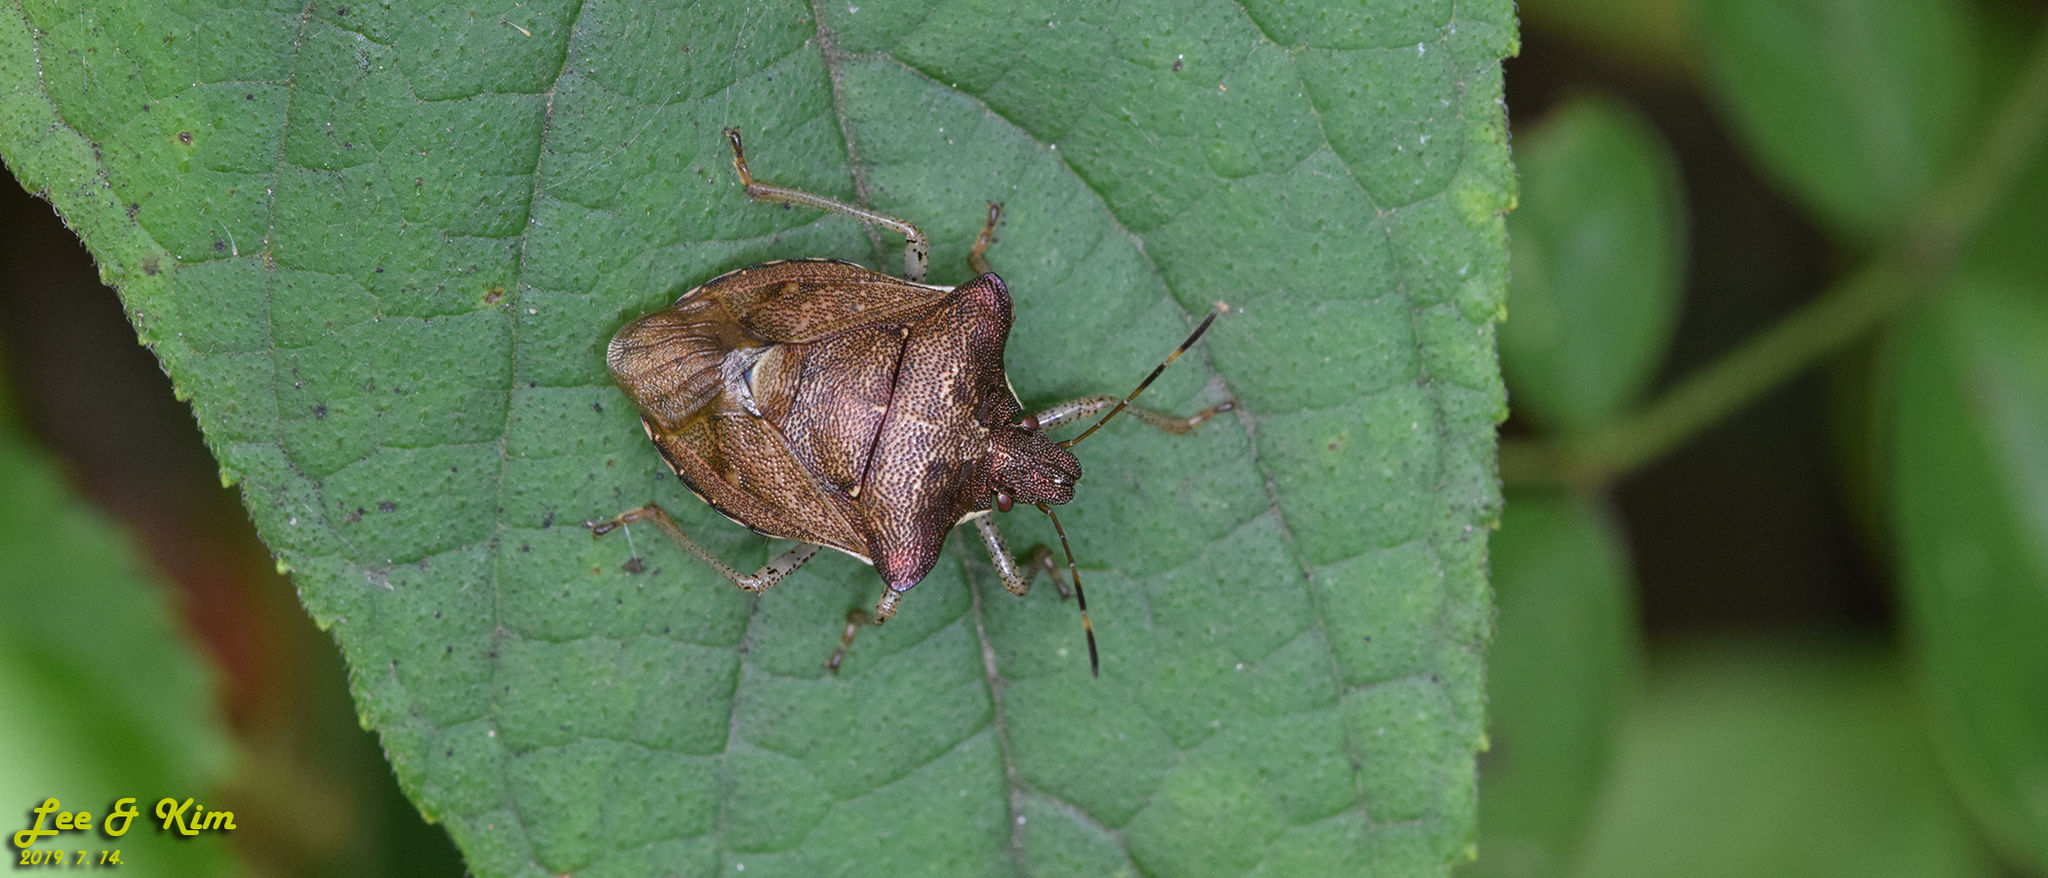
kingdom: Animalia
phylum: Arthropoda
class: Insecta
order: Hemiptera
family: Pentatomidae
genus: Carbula
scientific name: Carbula putoni
